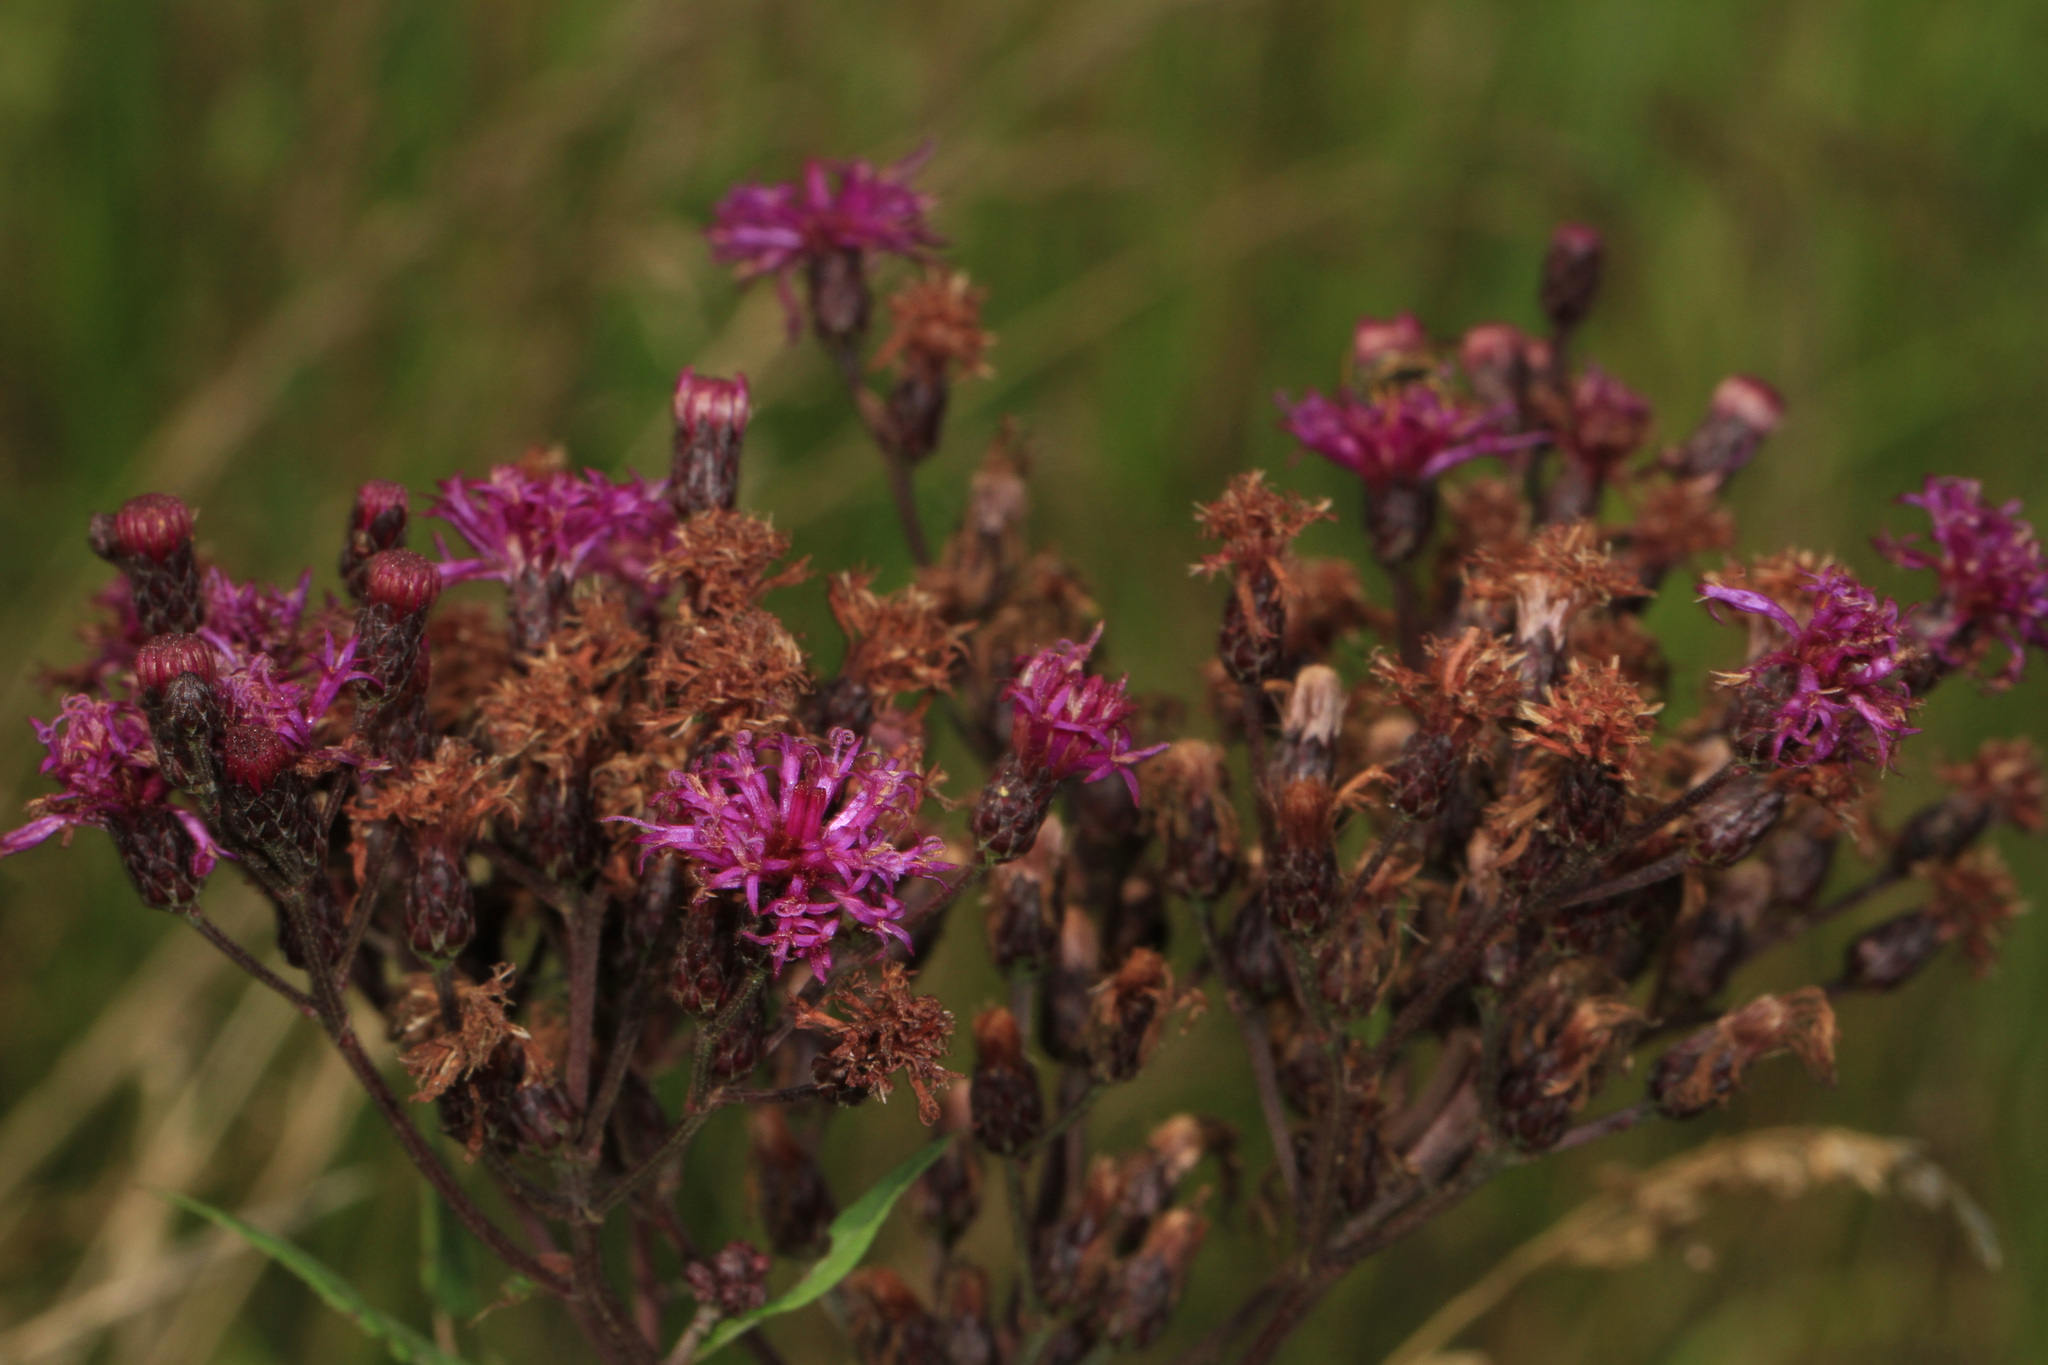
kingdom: Plantae
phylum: Tracheophyta
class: Magnoliopsida
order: Asterales
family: Asteraceae
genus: Vernonia
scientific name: Vernonia noveboracensis
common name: New york ironweed
